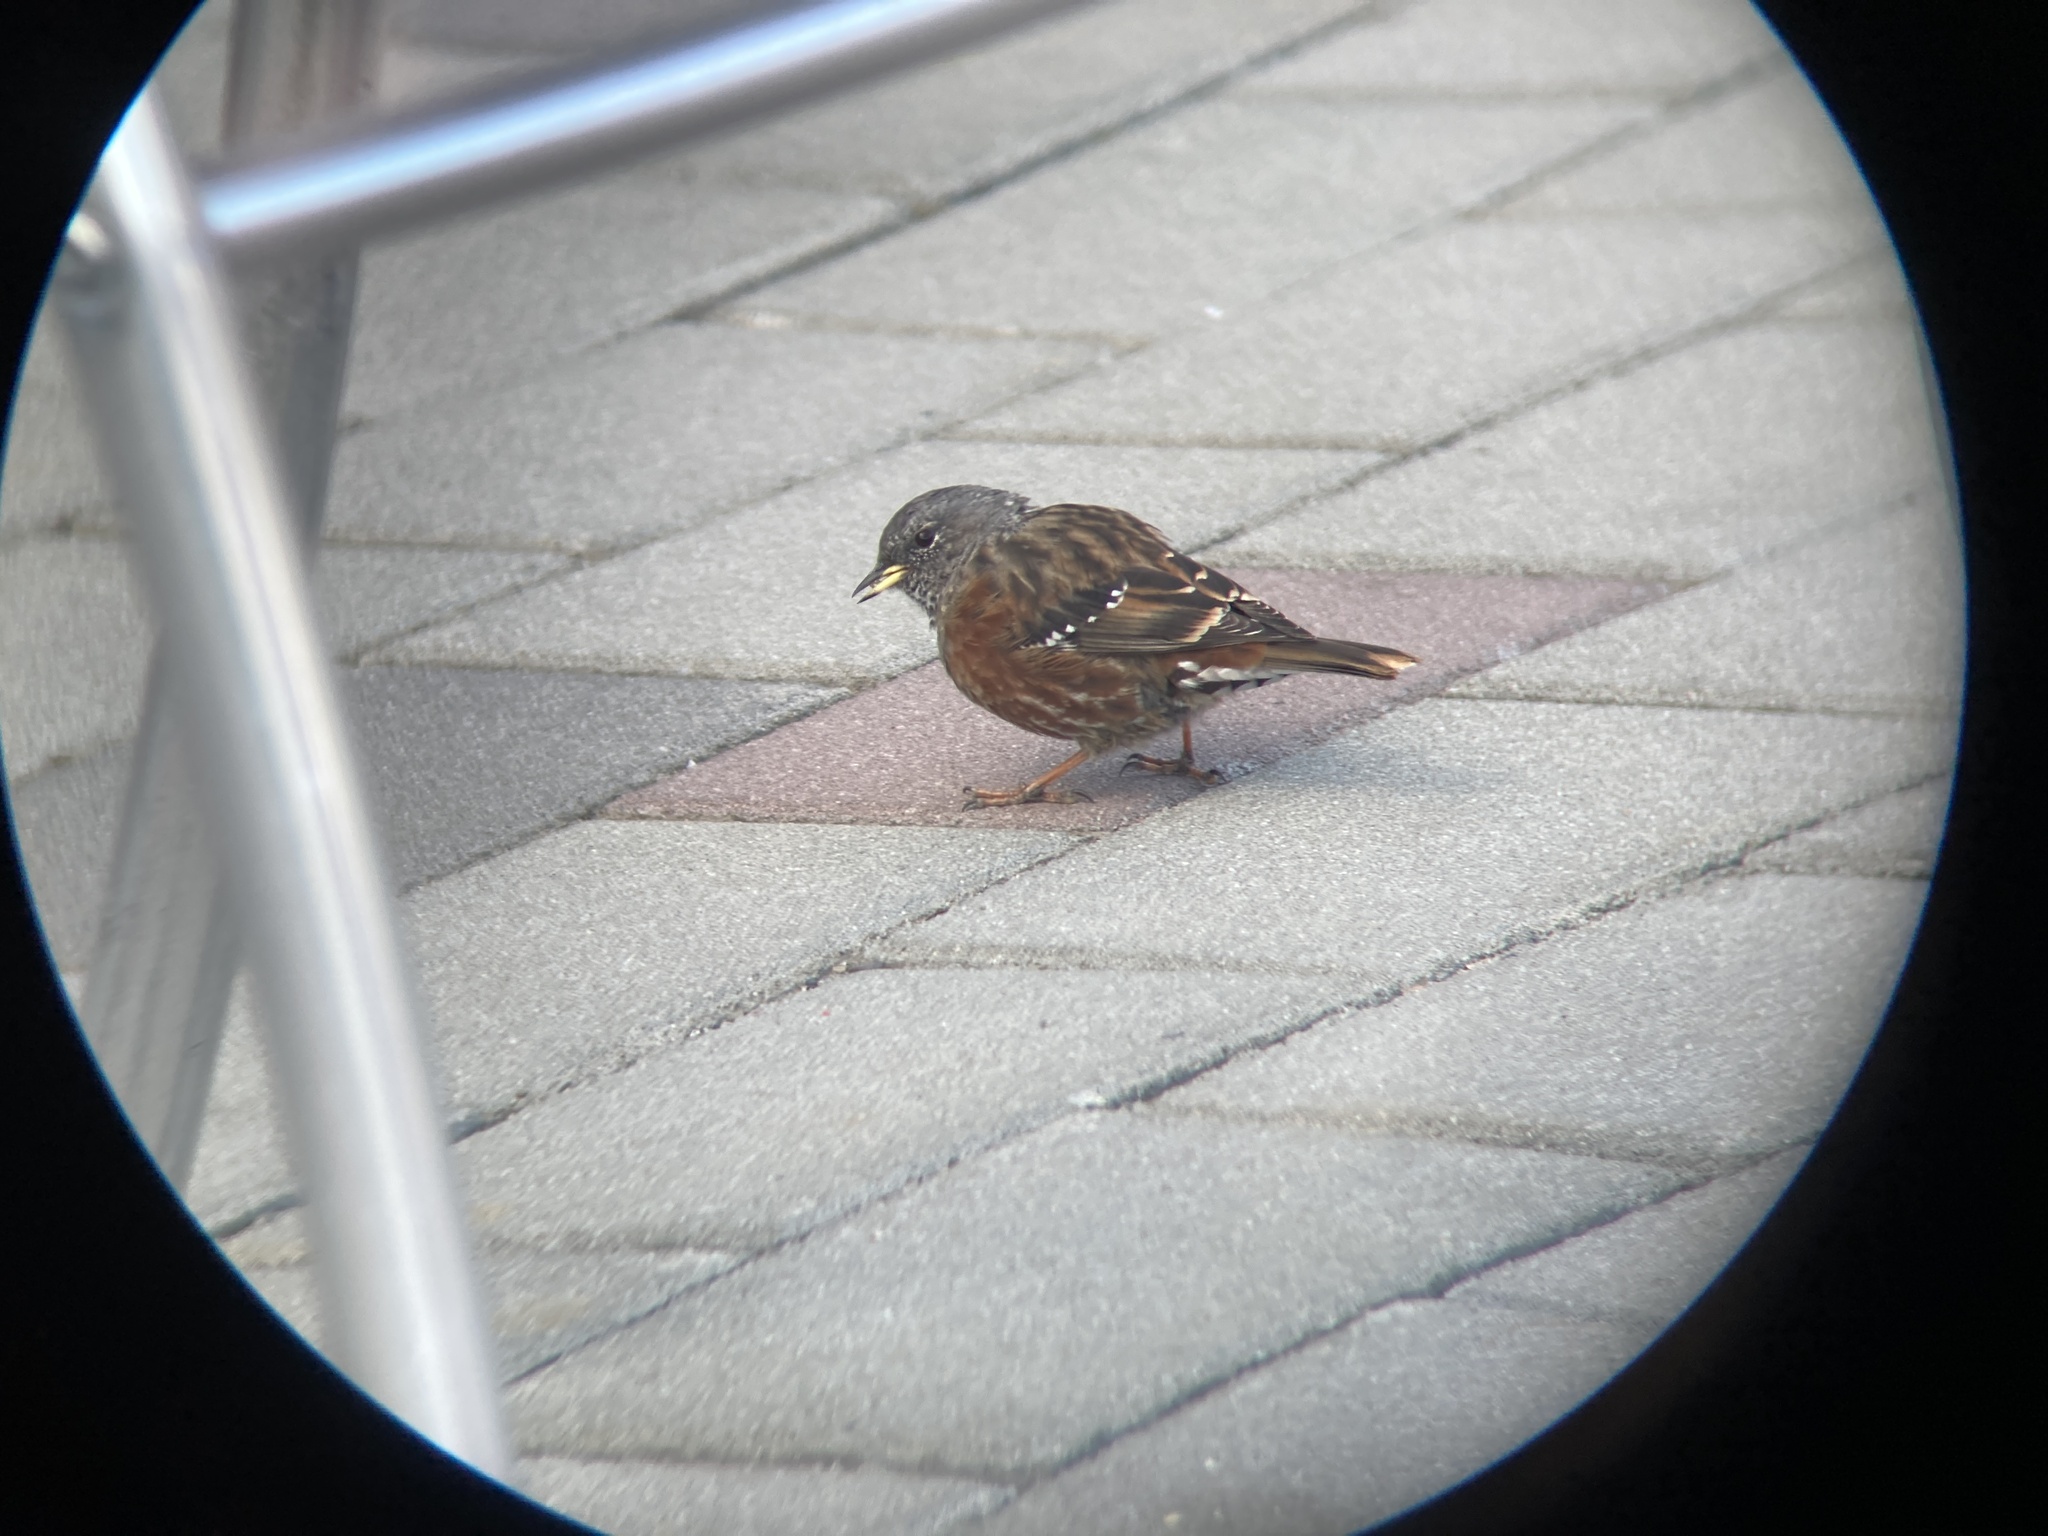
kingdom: Animalia
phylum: Chordata
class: Aves
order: Passeriformes
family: Prunellidae
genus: Prunella
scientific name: Prunella collaris
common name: Alpine accentor
